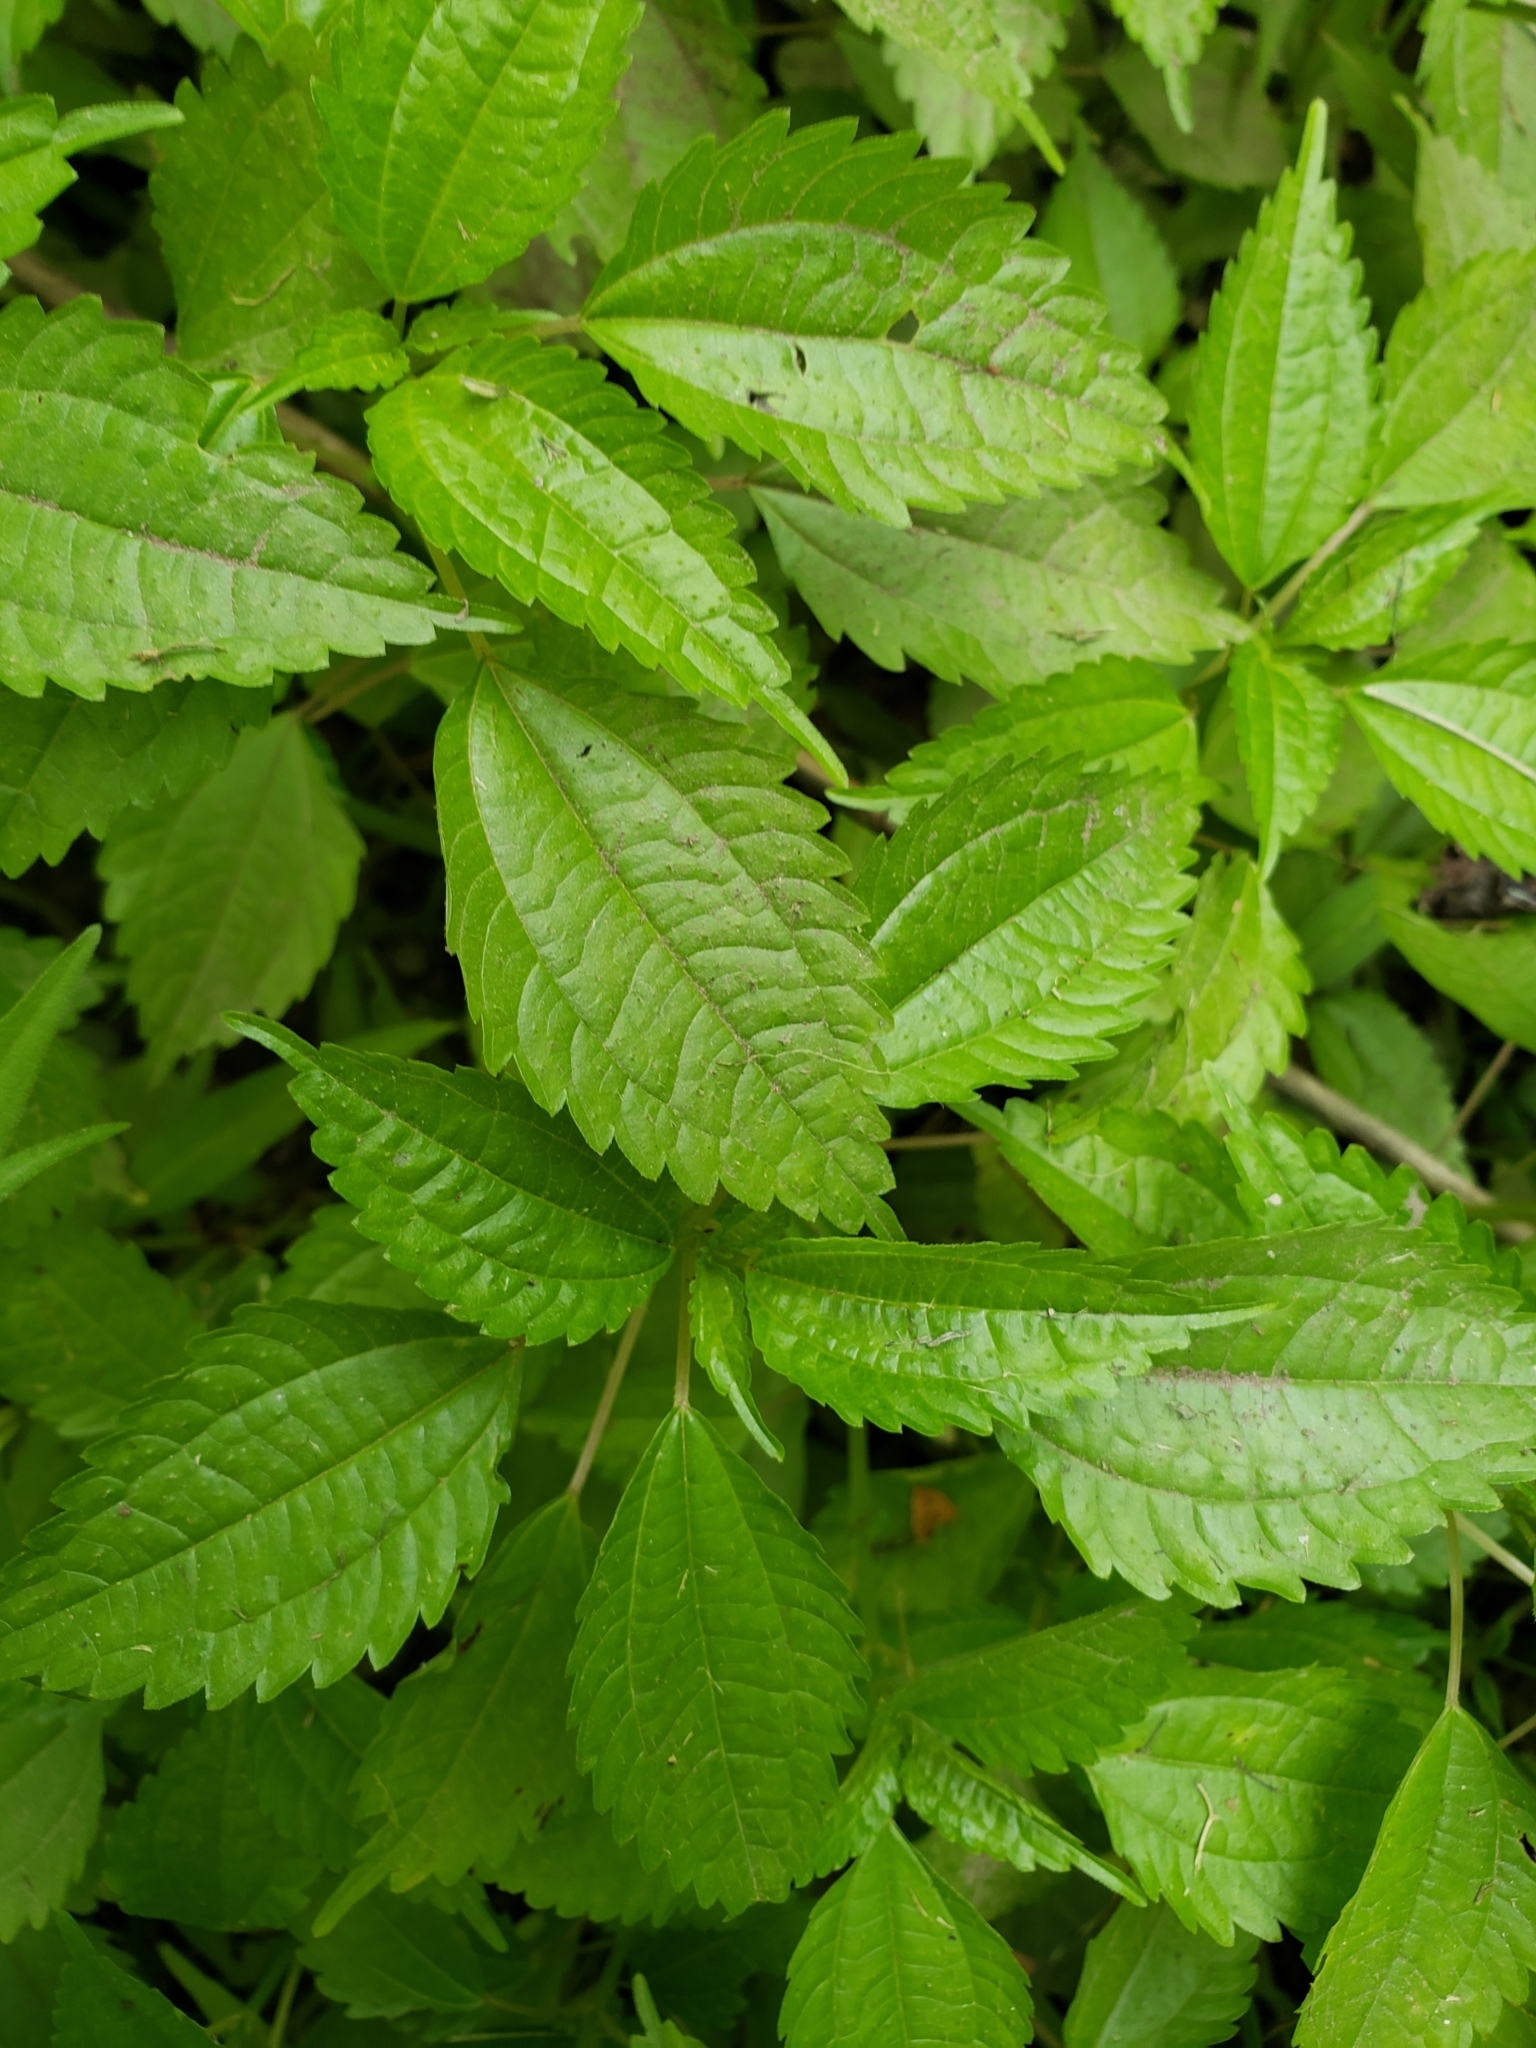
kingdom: Plantae
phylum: Tracheophyta
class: Magnoliopsida
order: Rosales
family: Urticaceae
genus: Pilea
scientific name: Pilea pumila
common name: Clearweed
